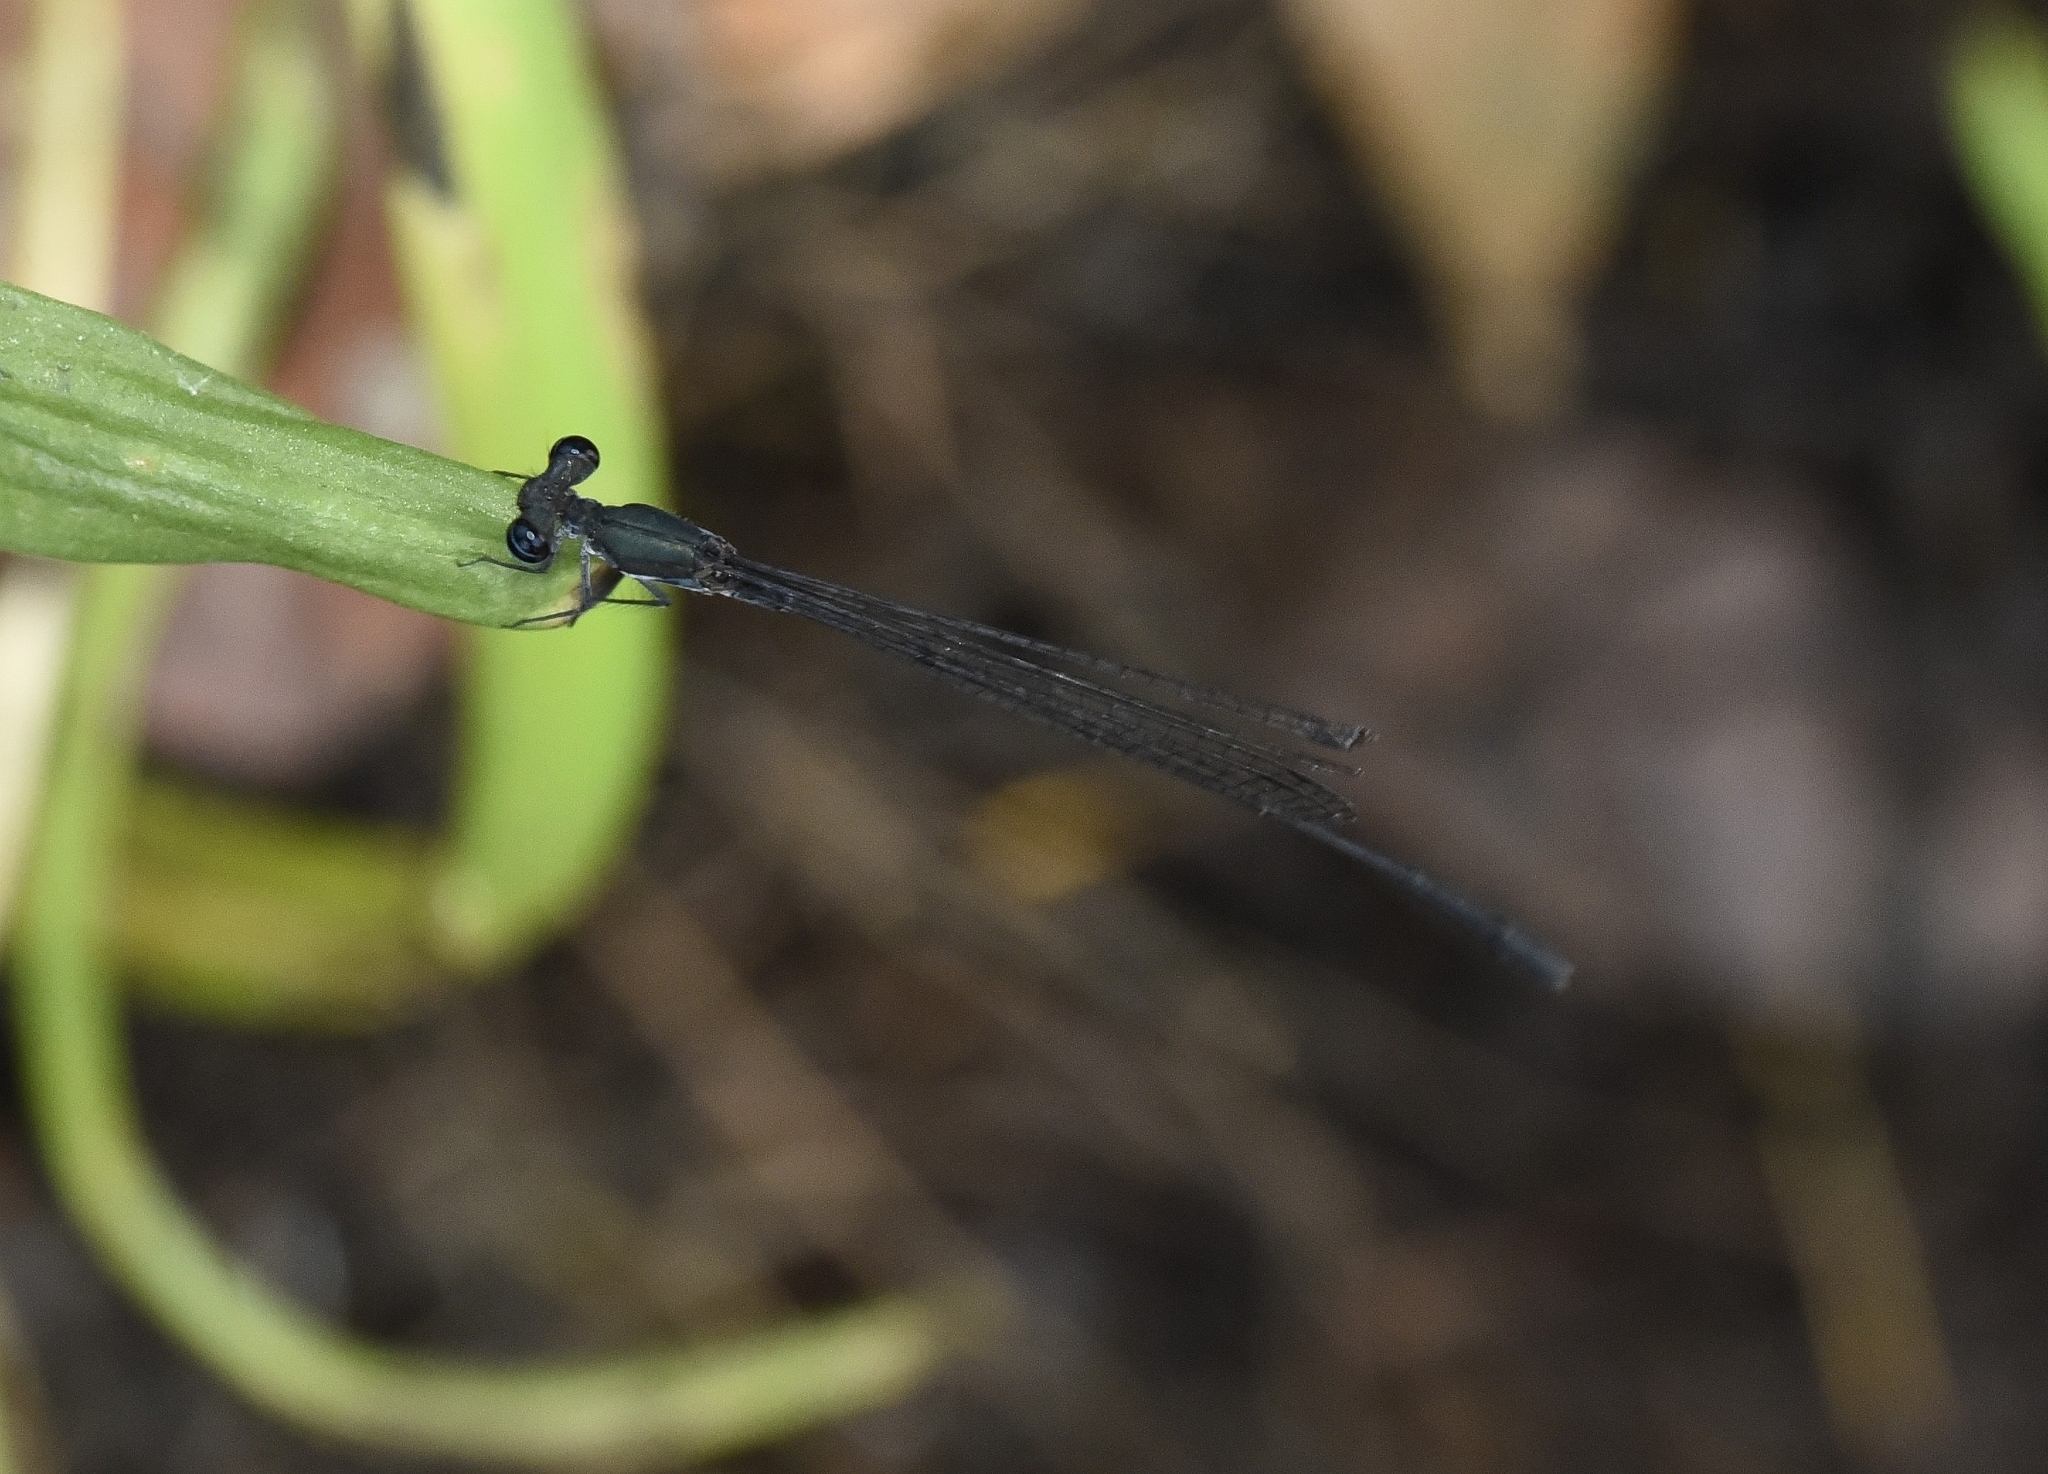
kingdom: Animalia
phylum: Arthropoda
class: Insecta
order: Odonata
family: Platycnemididae
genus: Elattoneura
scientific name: Elattoneura tetrica
